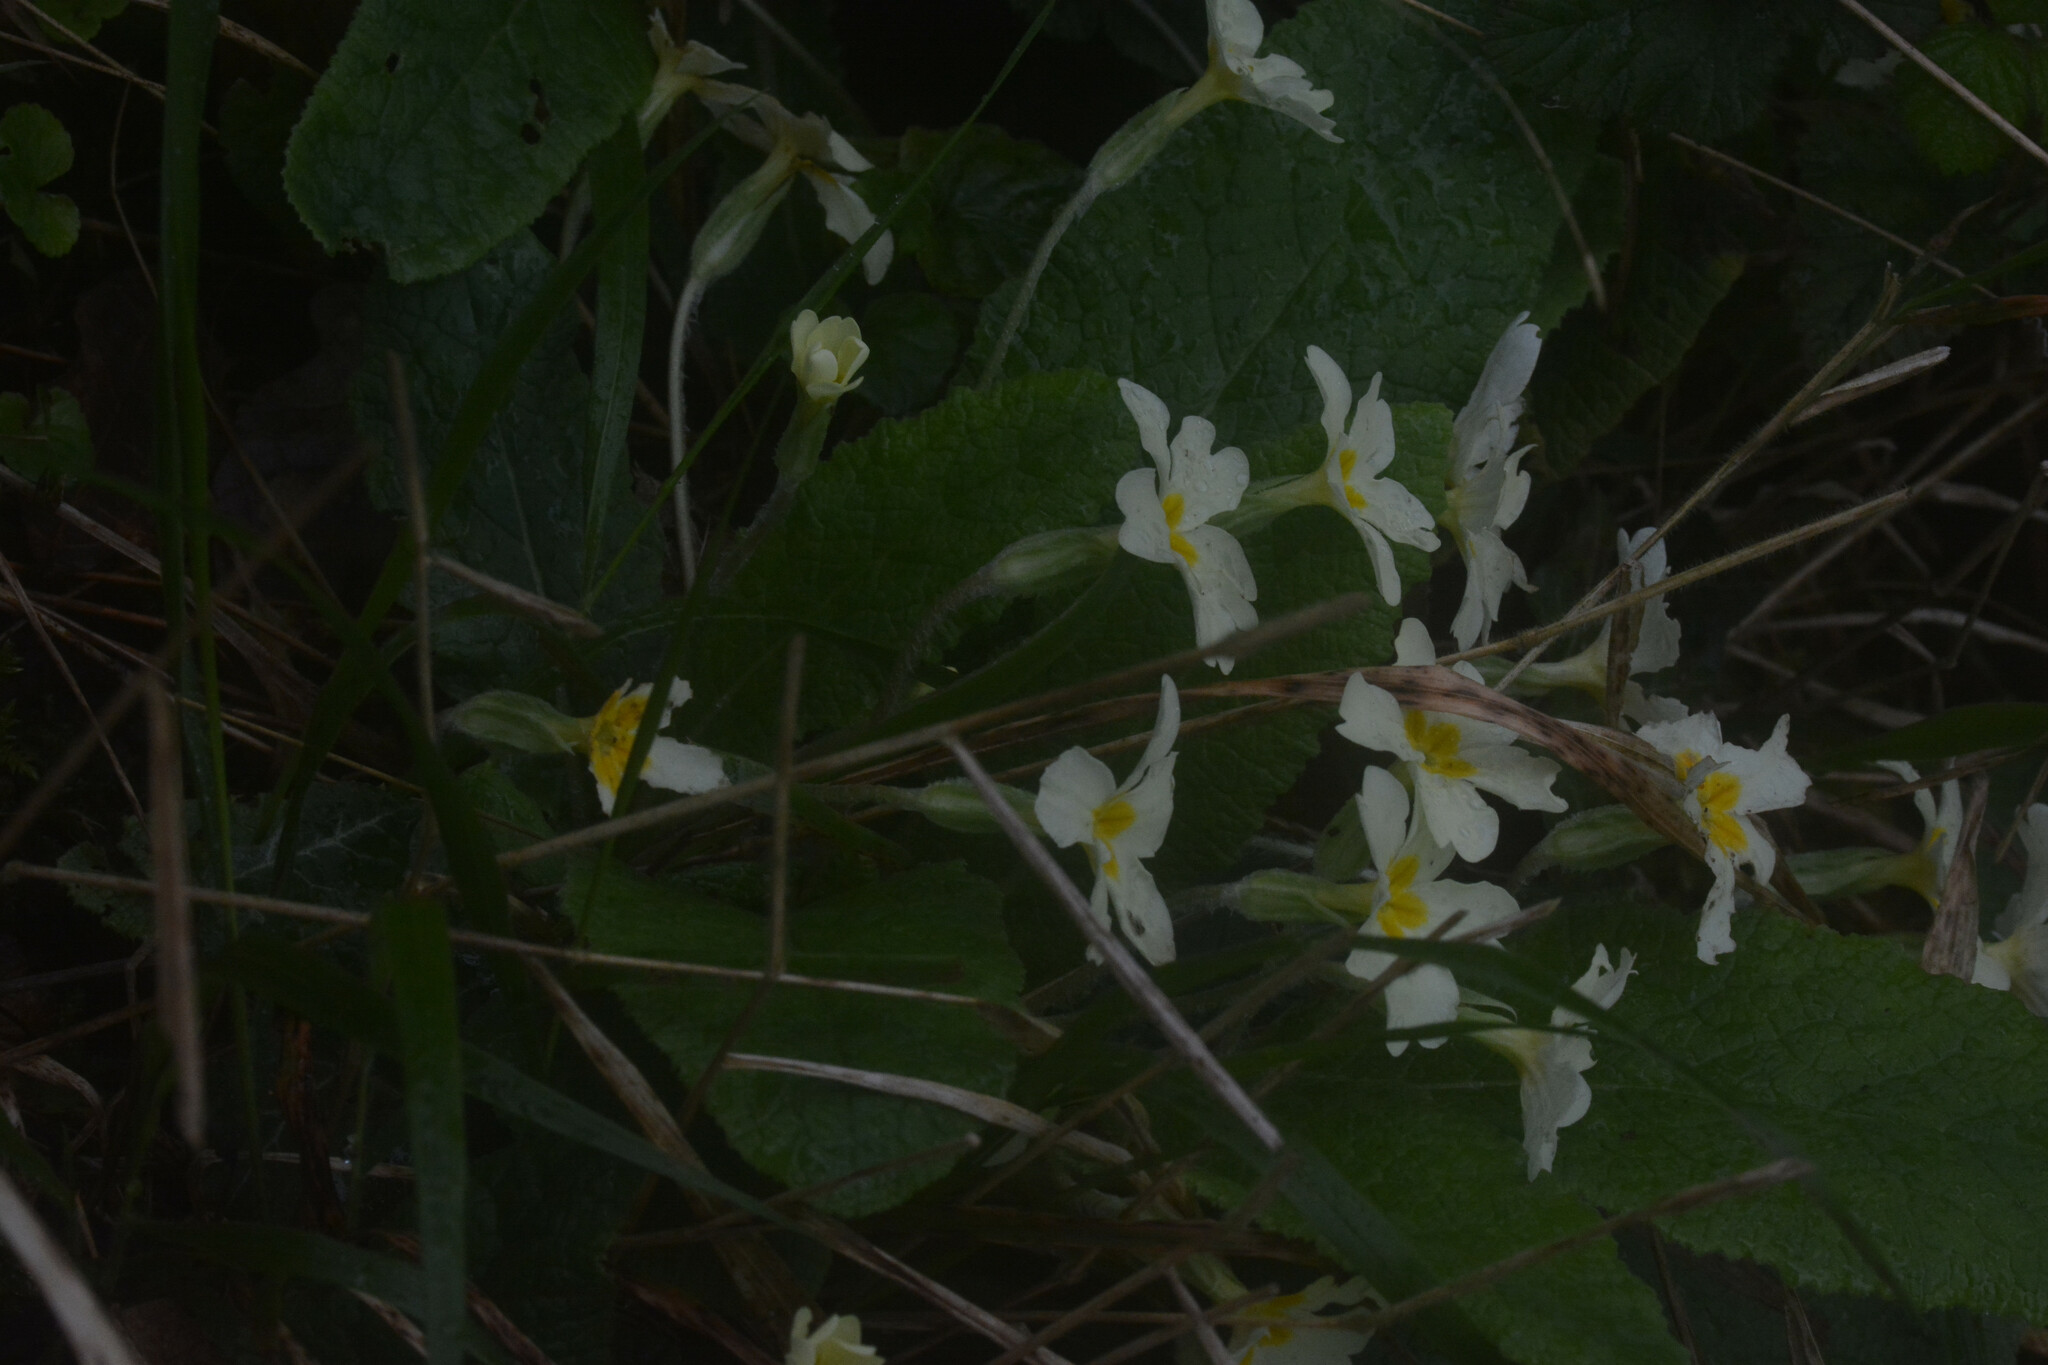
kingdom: Plantae
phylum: Tracheophyta
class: Magnoliopsida
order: Ericales
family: Primulaceae
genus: Primula
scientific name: Primula vulgaris
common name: Primrose
